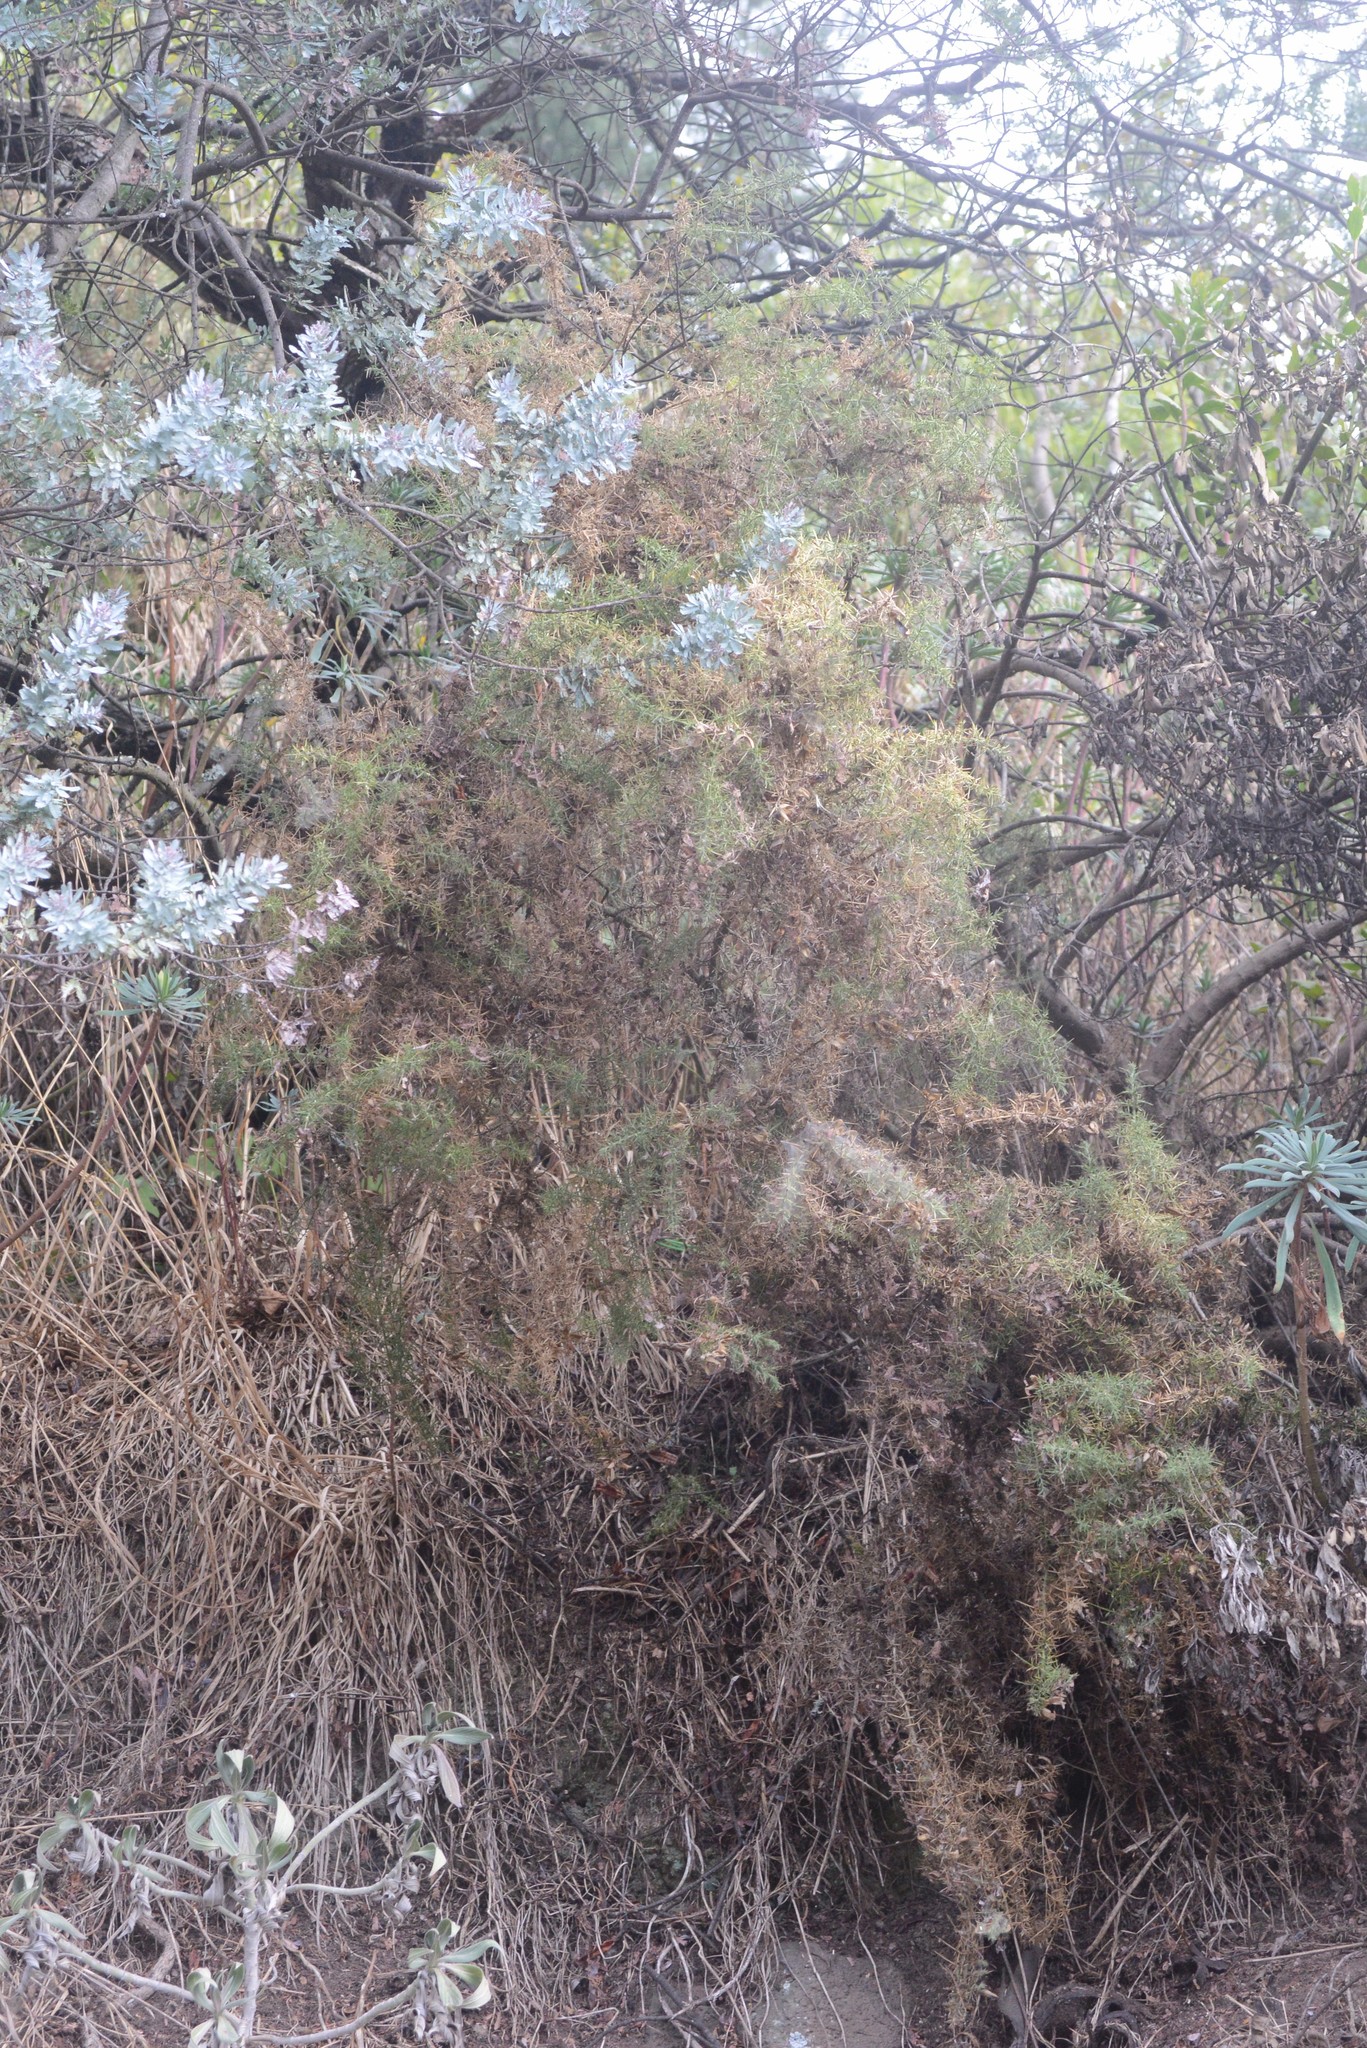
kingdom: Plantae
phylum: Tracheophyta
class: Magnoliopsida
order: Fabales
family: Fabaceae
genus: Ulex
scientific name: Ulex europaeus
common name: Common gorse
